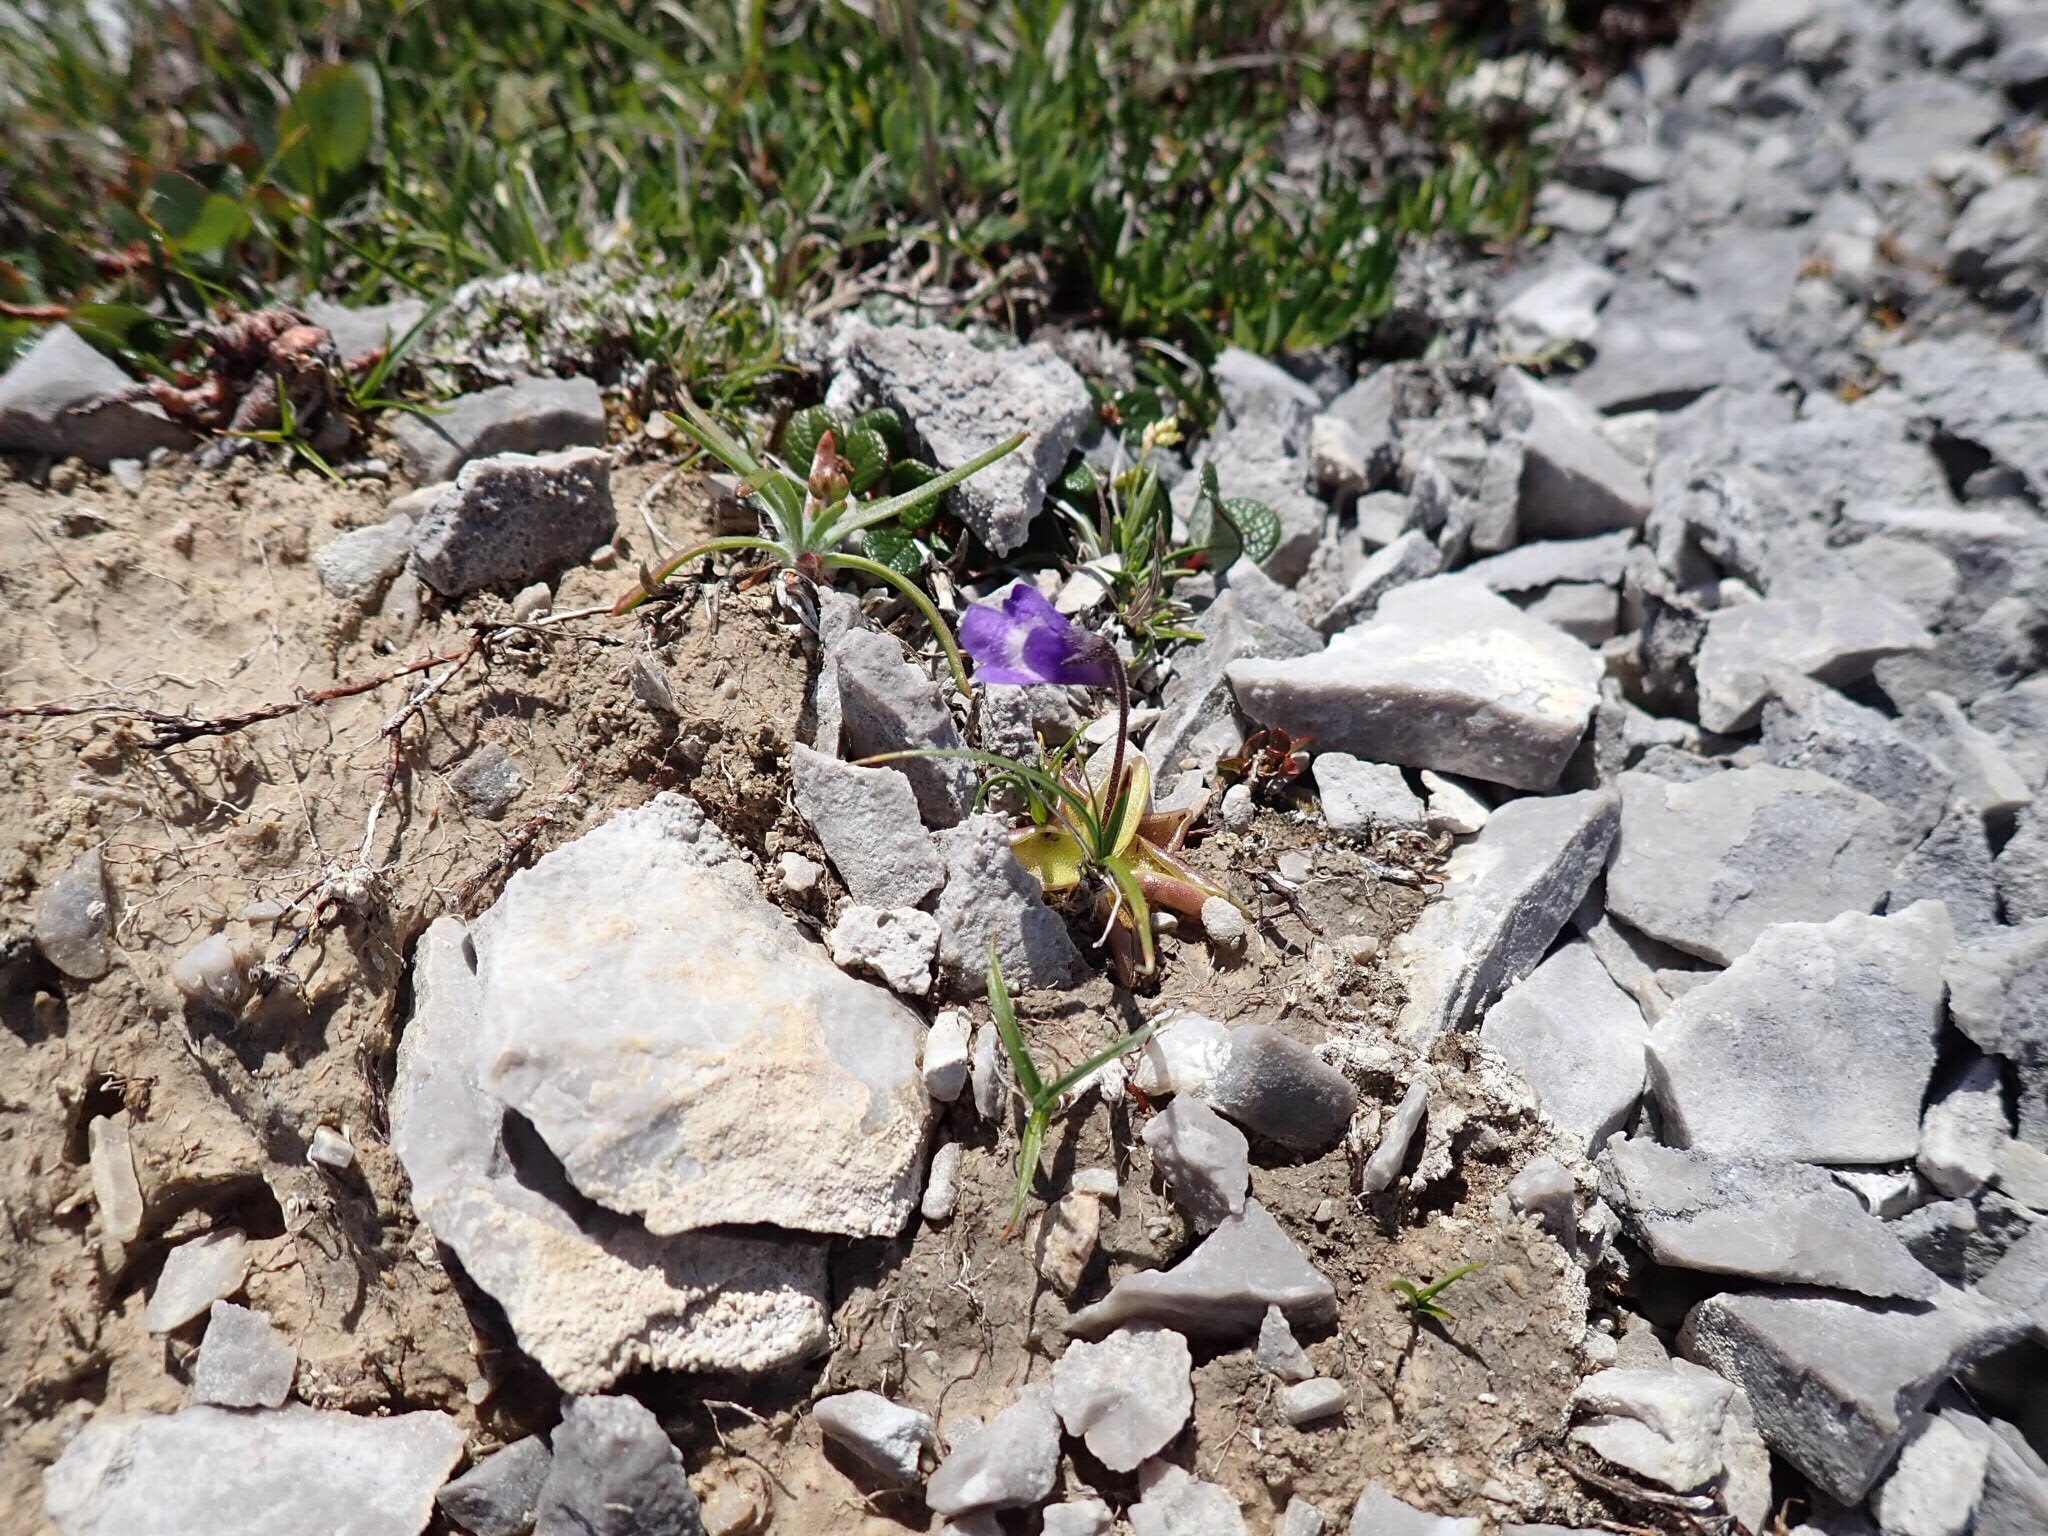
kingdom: Plantae
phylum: Tracheophyta
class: Magnoliopsida
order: Lamiales
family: Lentibulariaceae
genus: Pinguicula
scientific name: Pinguicula vulgaris
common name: Common butterwort
